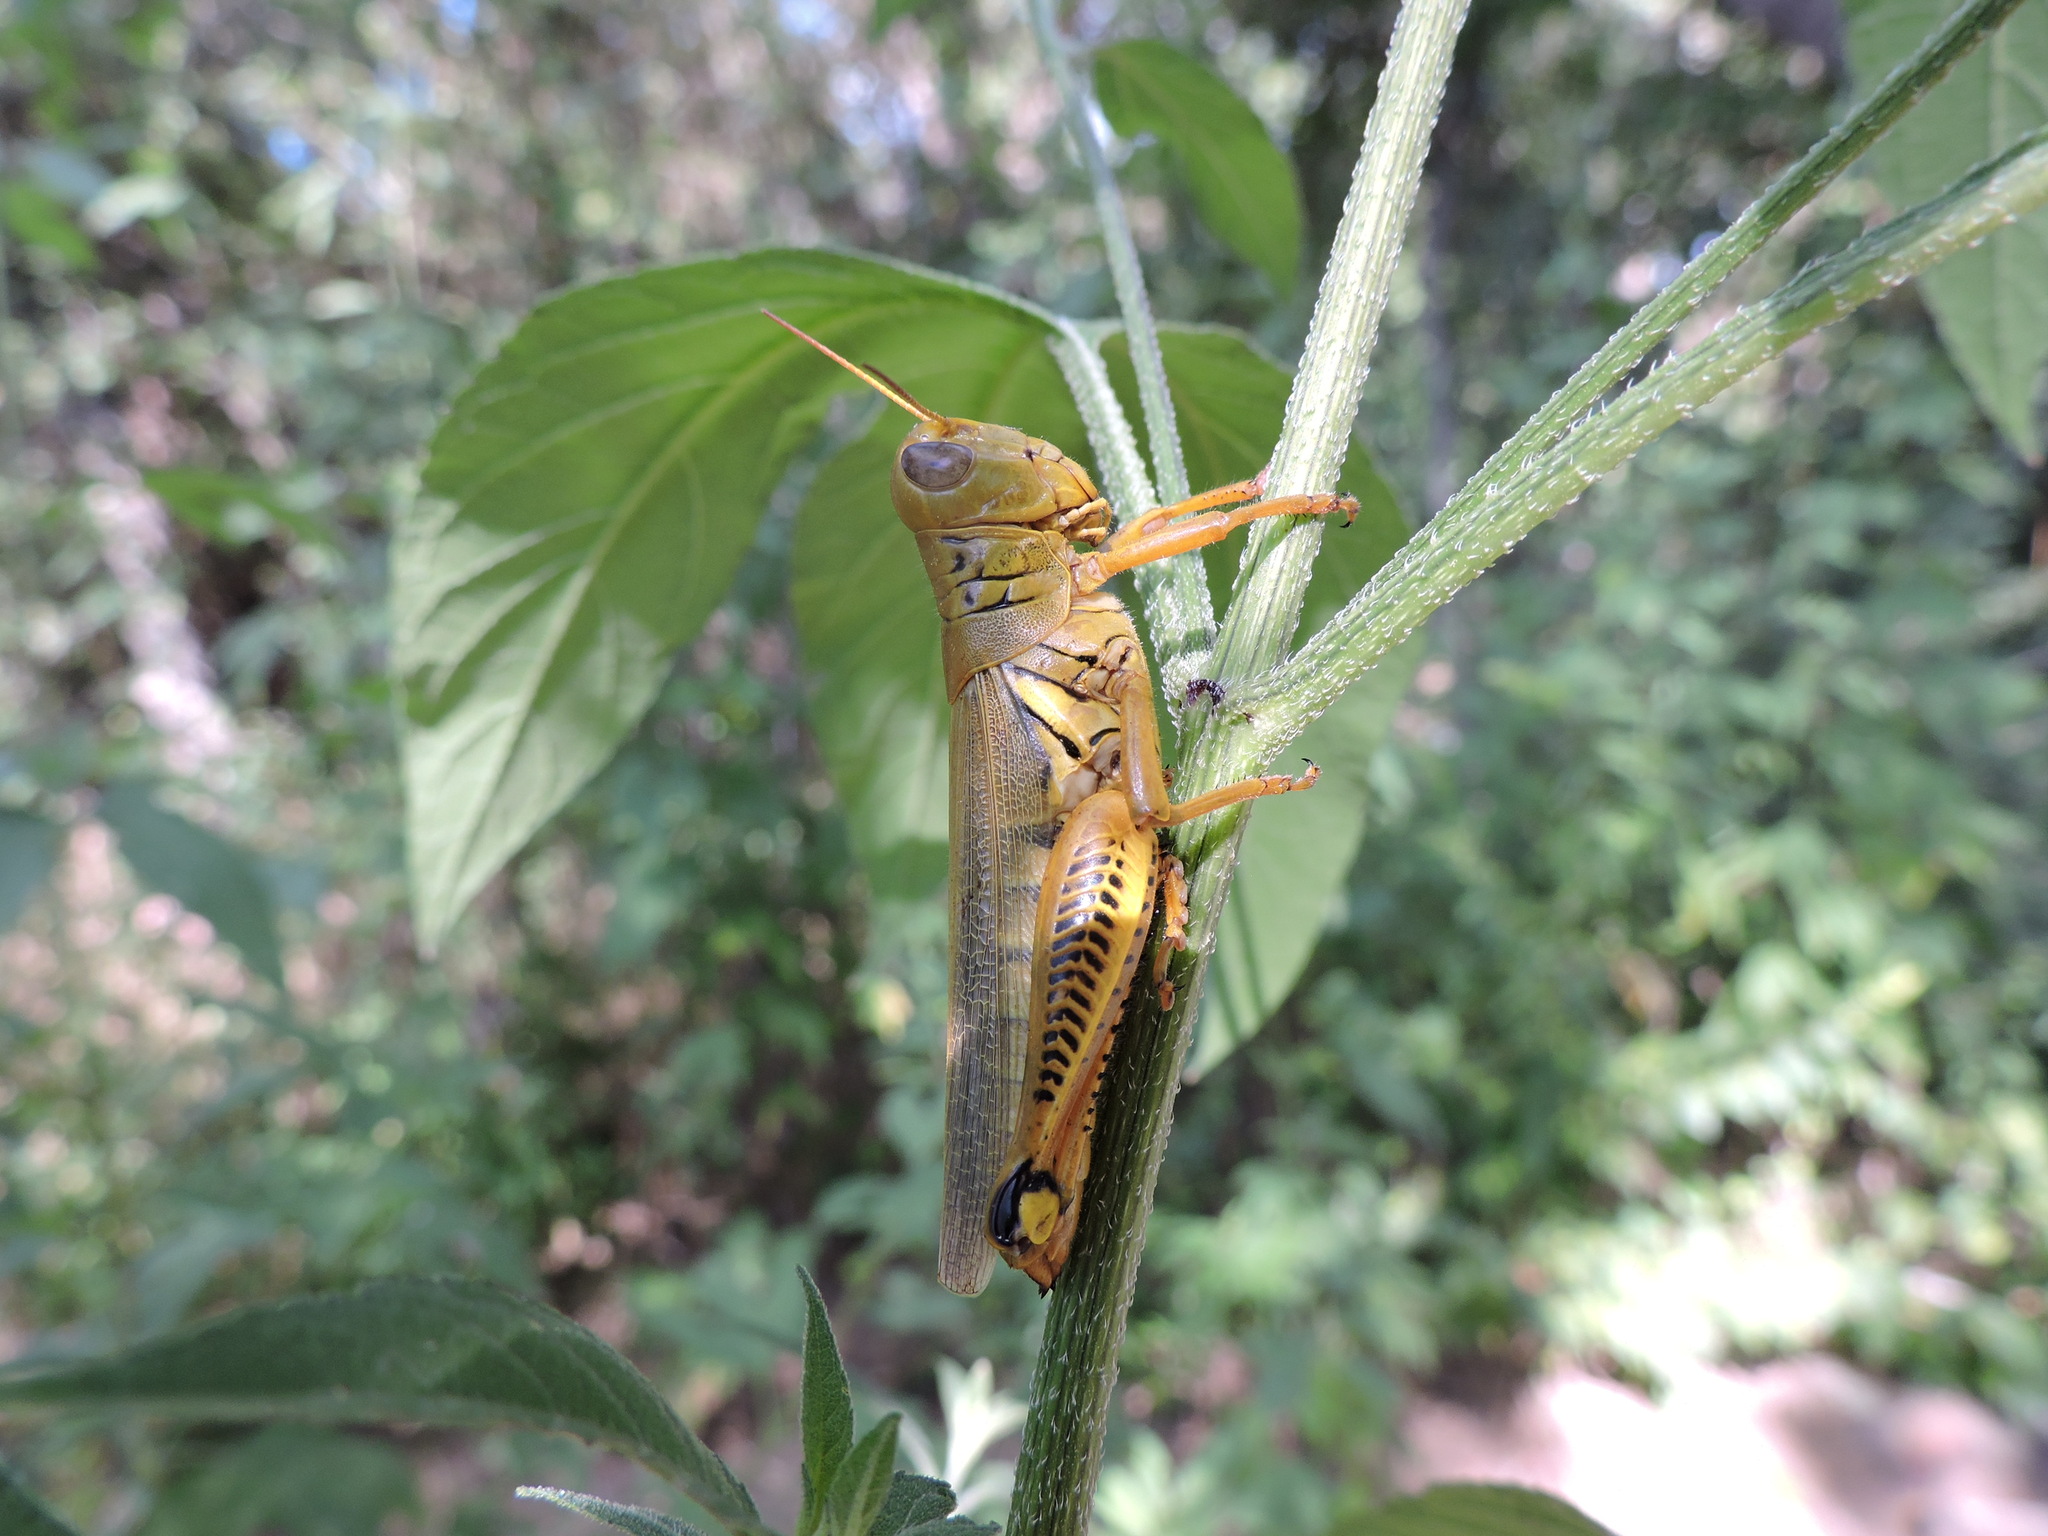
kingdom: Animalia
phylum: Arthropoda
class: Insecta
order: Orthoptera
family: Acrididae
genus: Melanoplus
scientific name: Melanoplus differentialis
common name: Differential grasshopper
